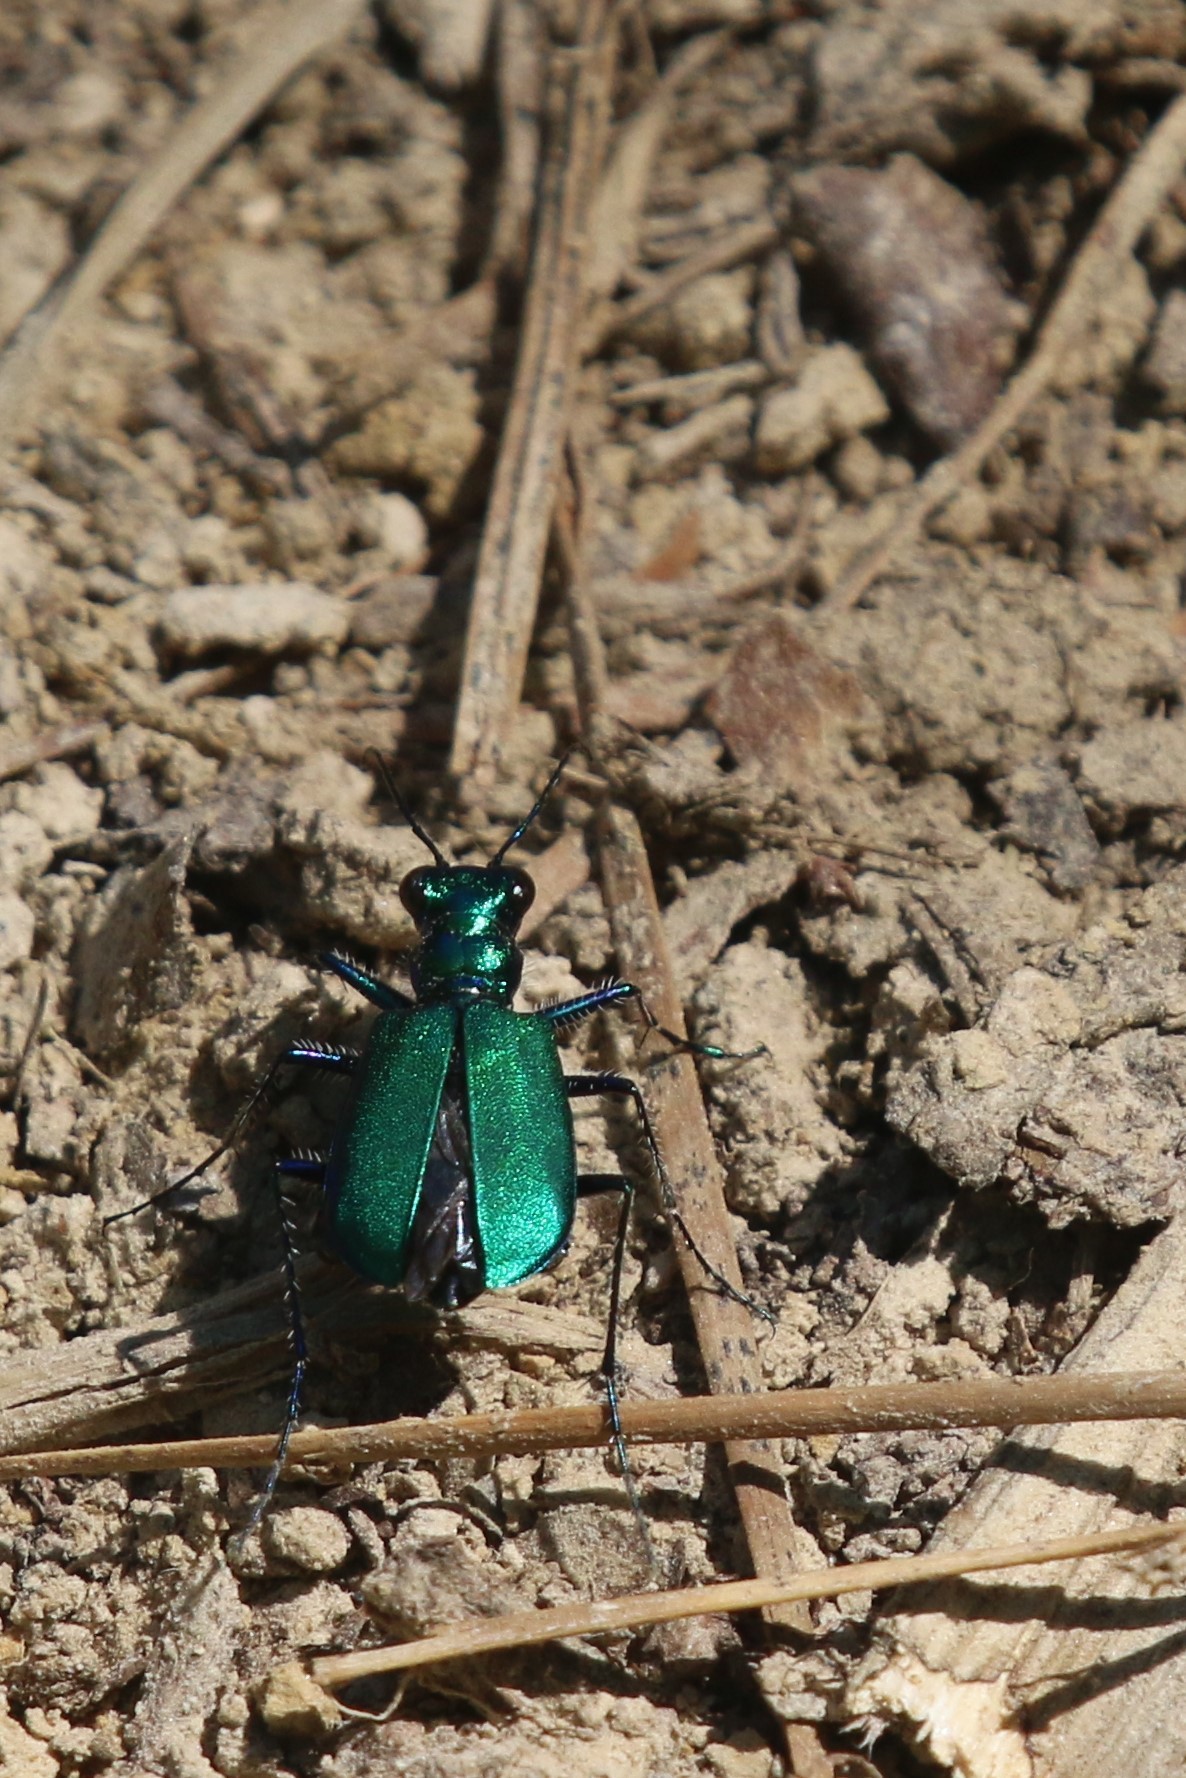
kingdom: Animalia
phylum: Arthropoda
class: Insecta
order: Coleoptera
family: Carabidae
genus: Cicindela
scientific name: Cicindela sexguttata
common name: Six-spotted tiger beetle
